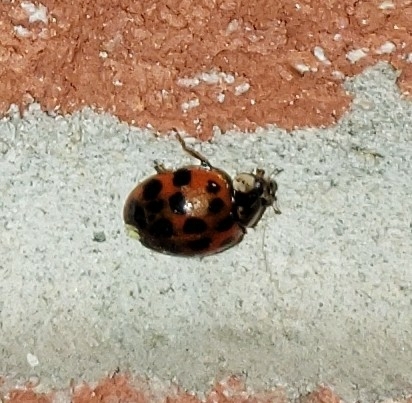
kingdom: Animalia
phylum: Arthropoda
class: Insecta
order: Coleoptera
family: Coccinellidae
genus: Harmonia
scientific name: Harmonia axyridis
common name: Harlequin ladybird
